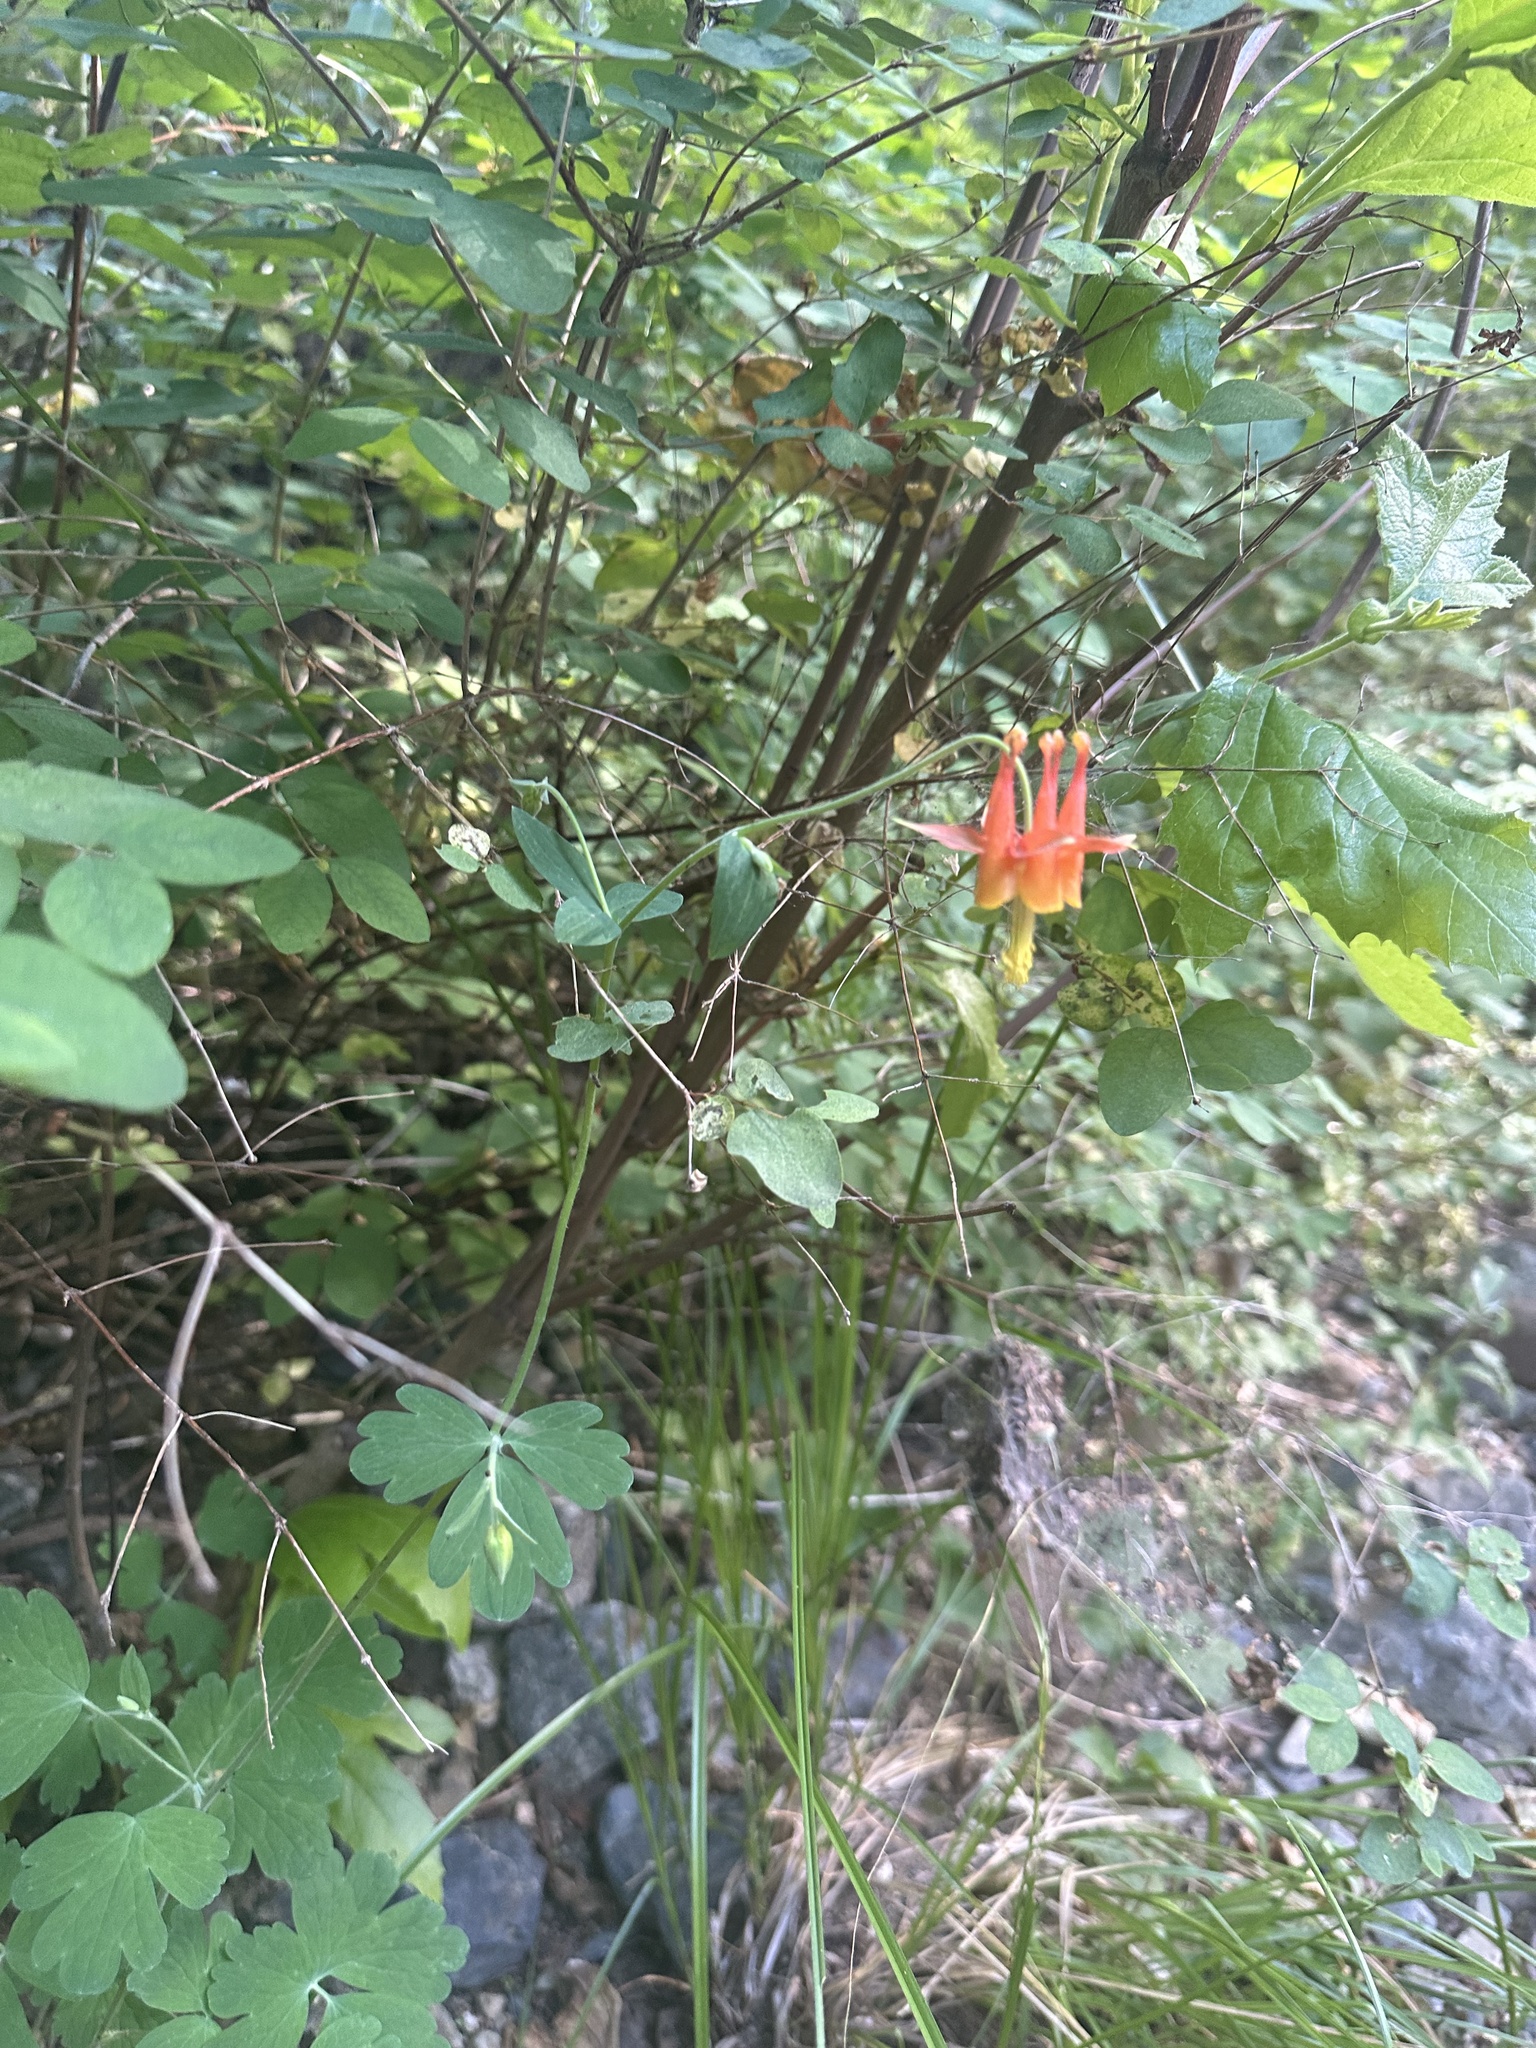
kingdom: Plantae
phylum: Tracheophyta
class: Magnoliopsida
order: Ranunculales
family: Ranunculaceae
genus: Aquilegia
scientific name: Aquilegia formosa
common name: Sitka columbine
